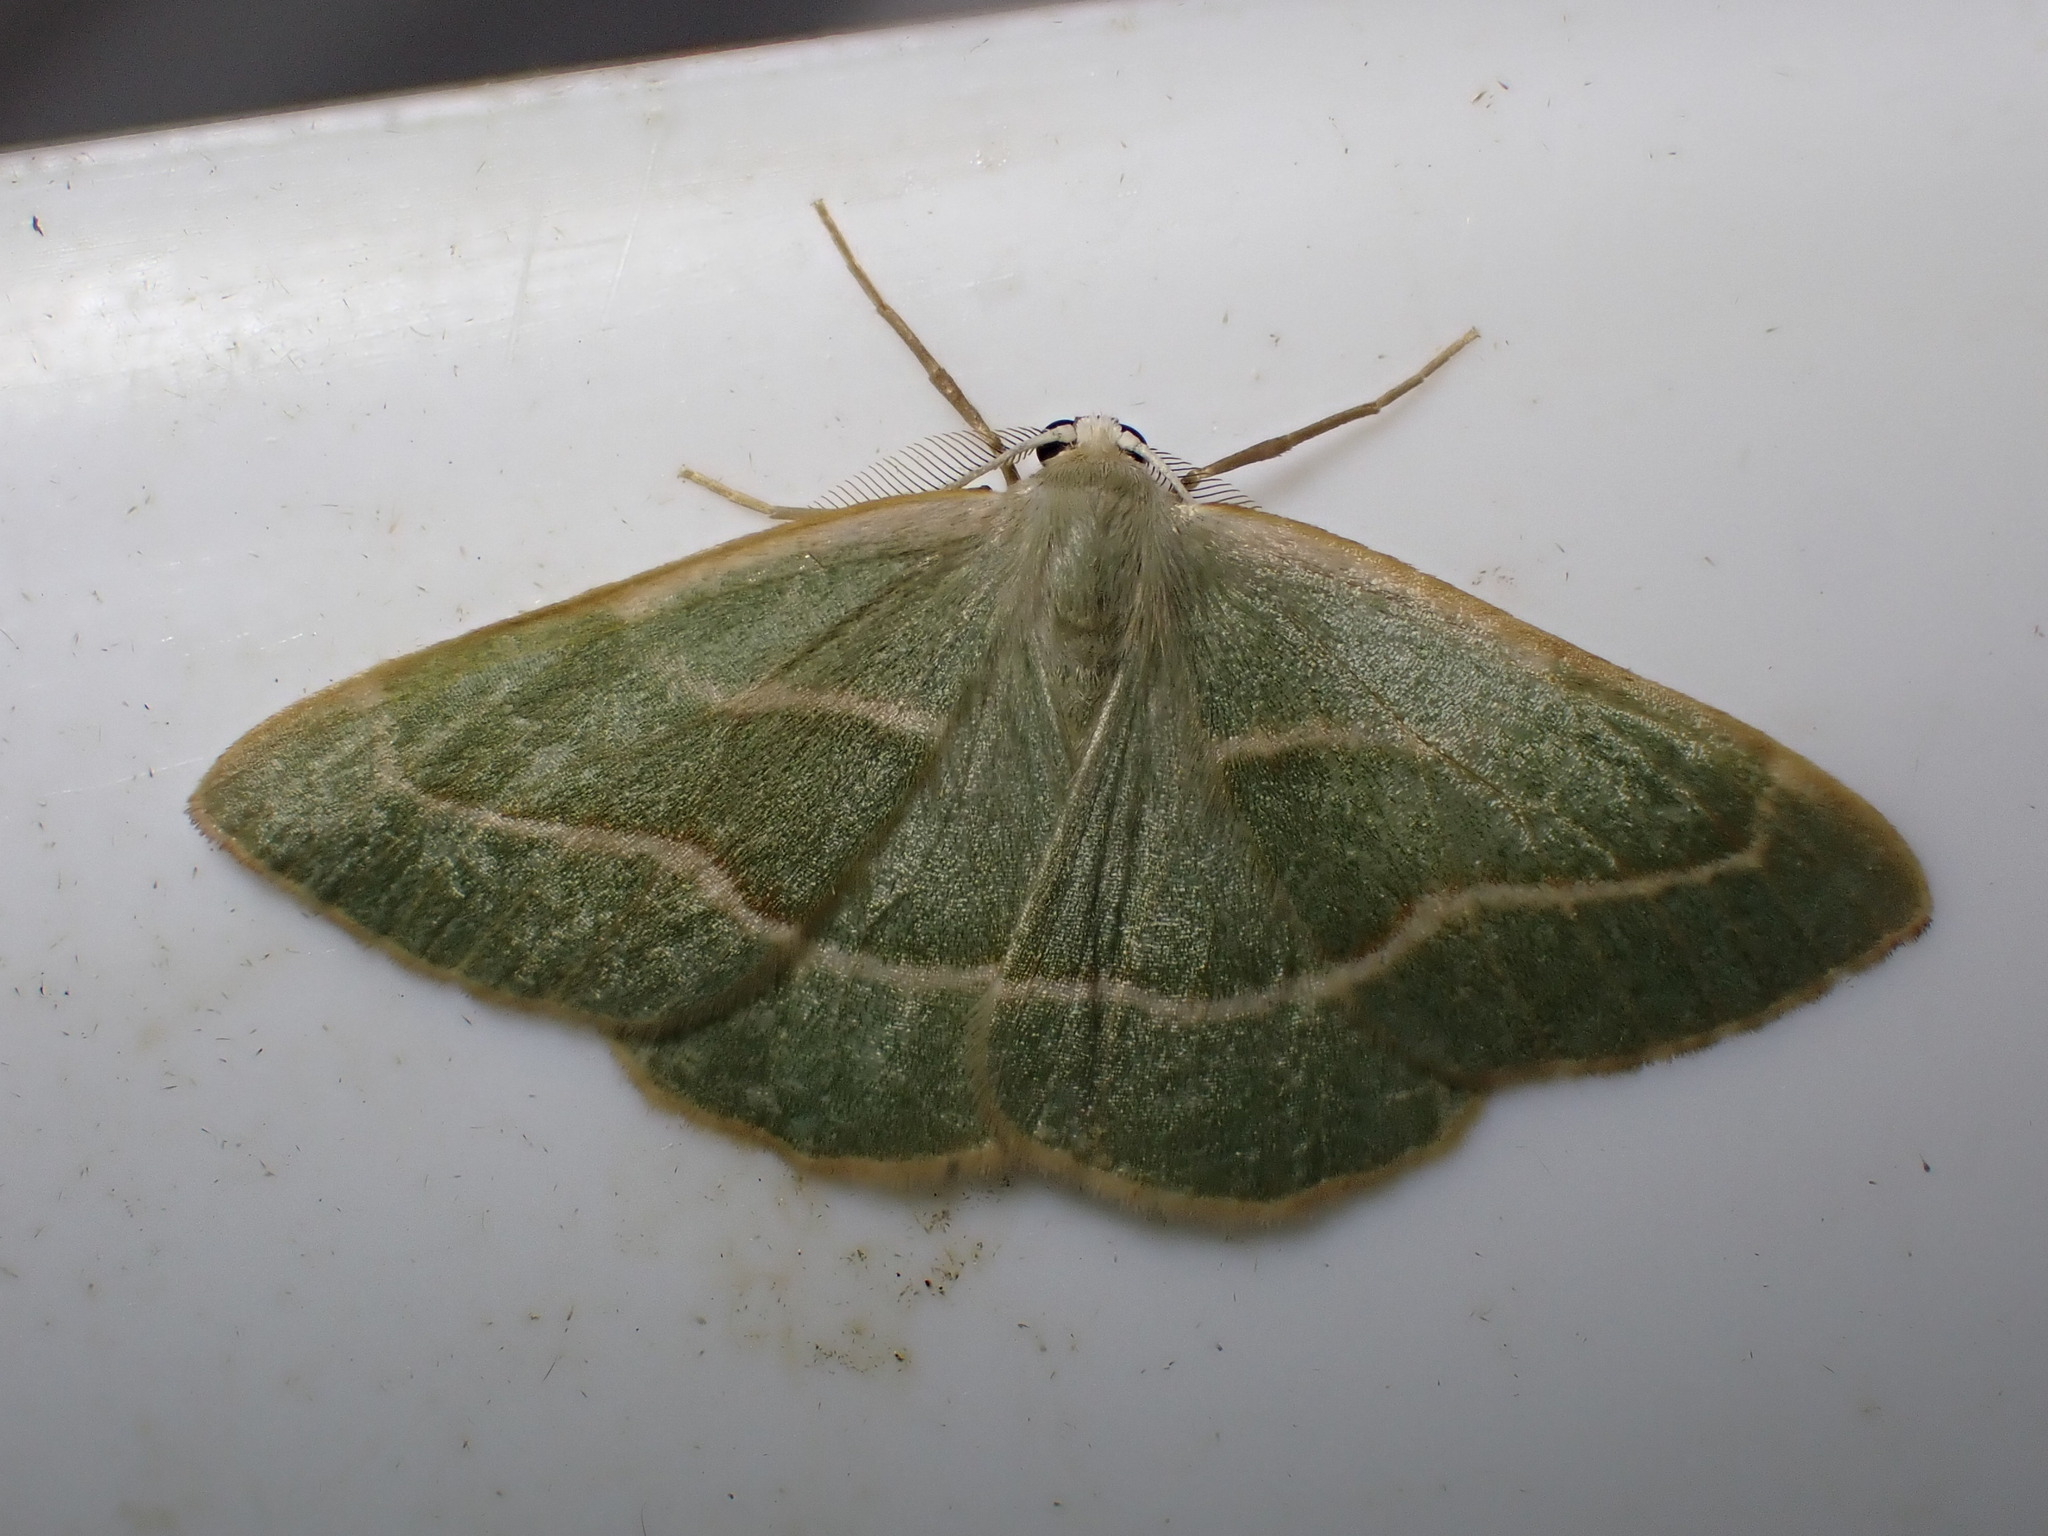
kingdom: Animalia
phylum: Arthropoda
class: Insecta
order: Lepidoptera
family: Geometridae
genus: Hylaea
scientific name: Hylaea fasciaria
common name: Barred red
